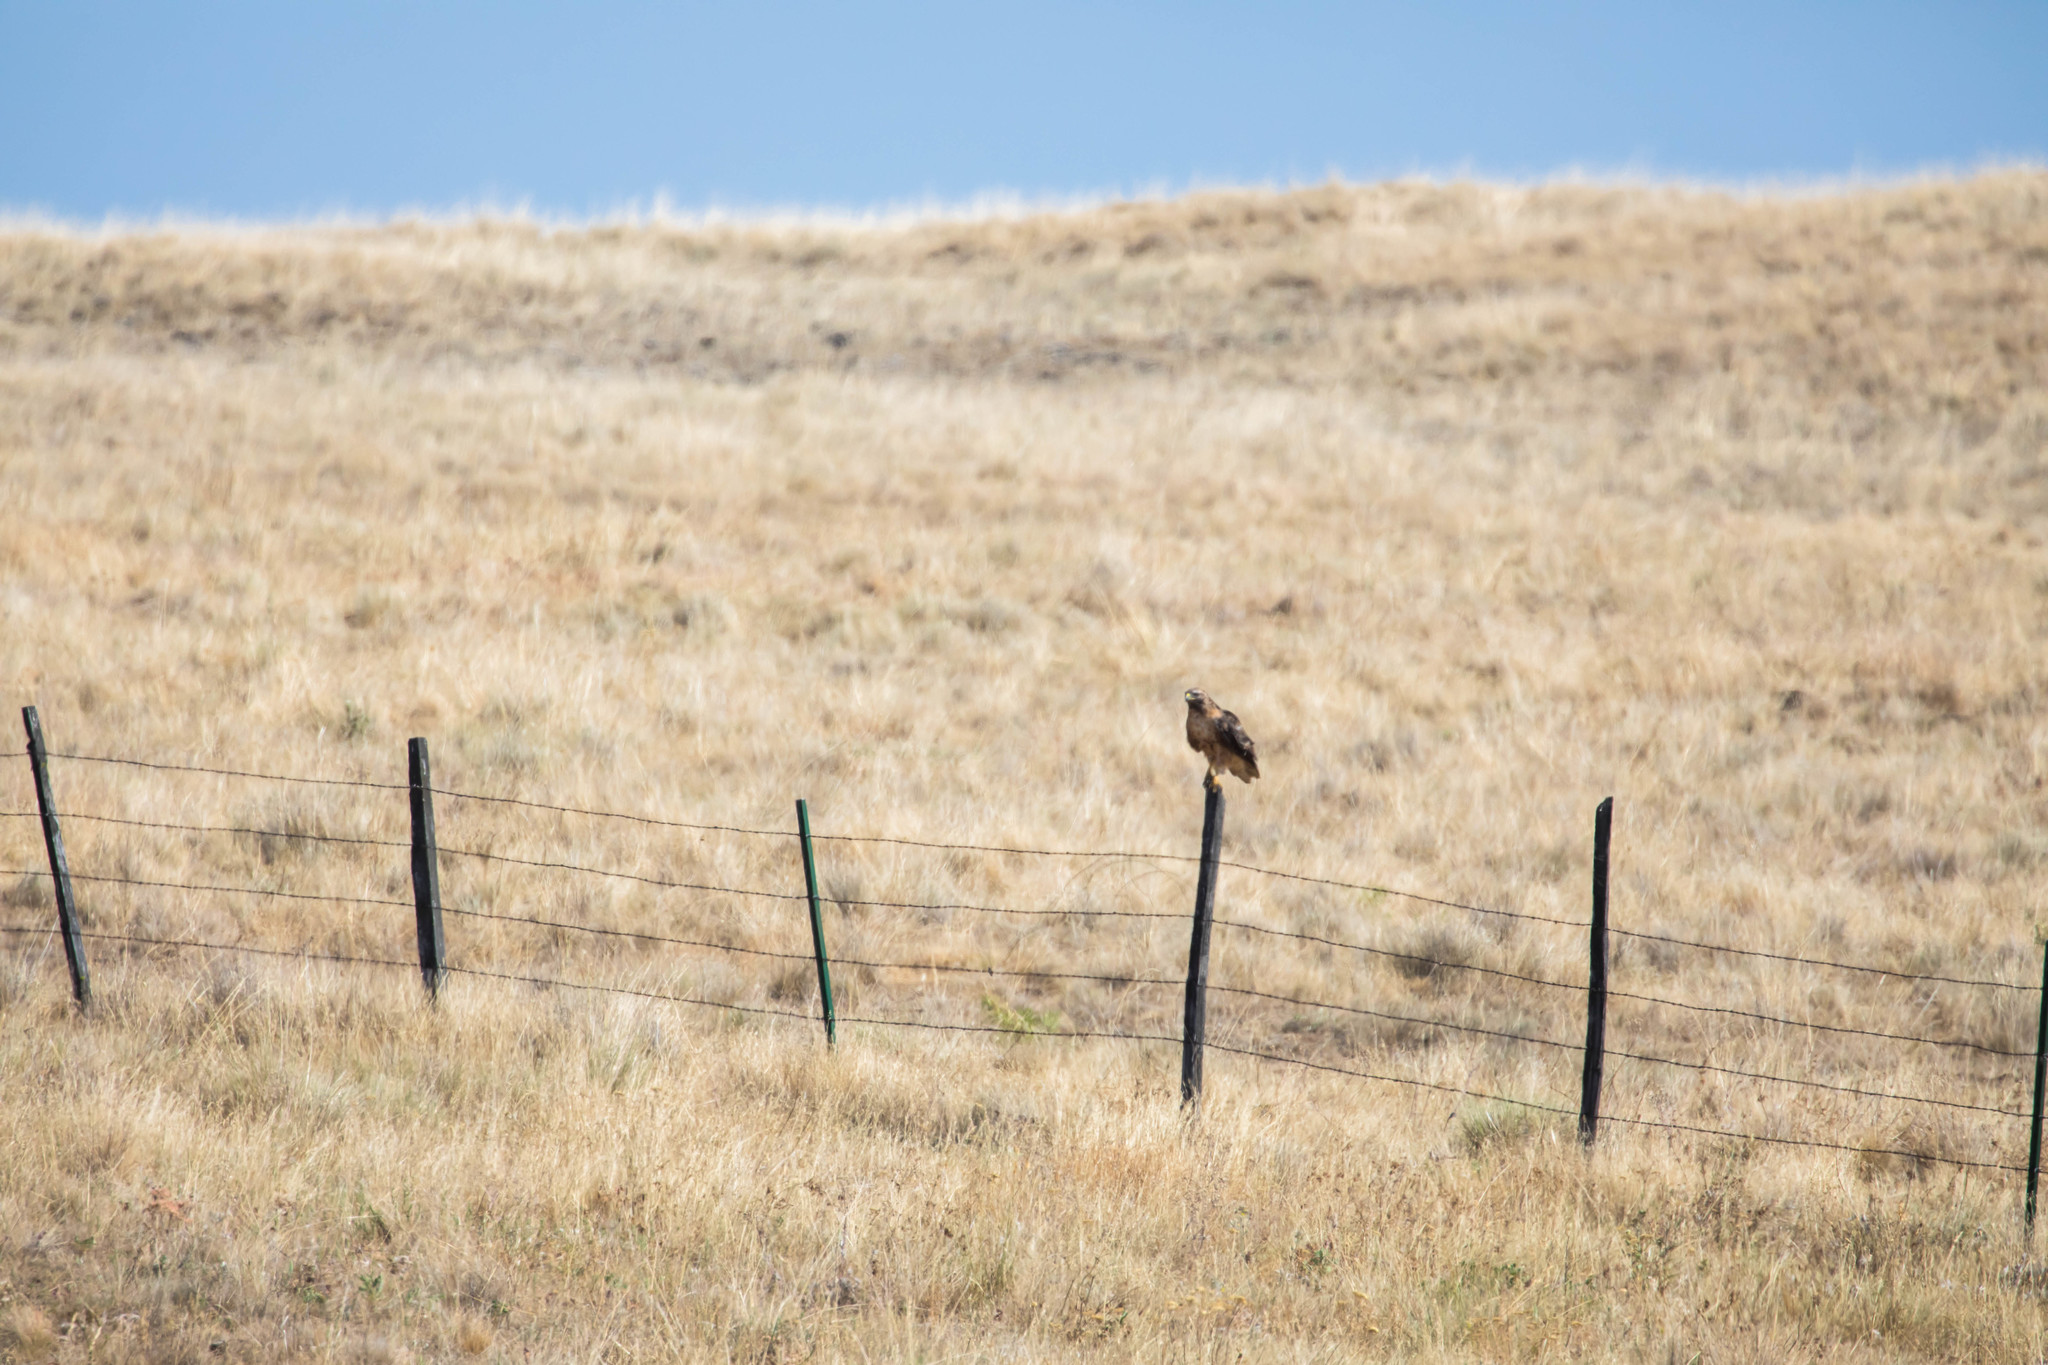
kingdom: Animalia
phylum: Chordata
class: Aves
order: Accipitriformes
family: Accipitridae
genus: Buteo
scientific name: Buteo jamaicensis
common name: Red-tailed hawk
